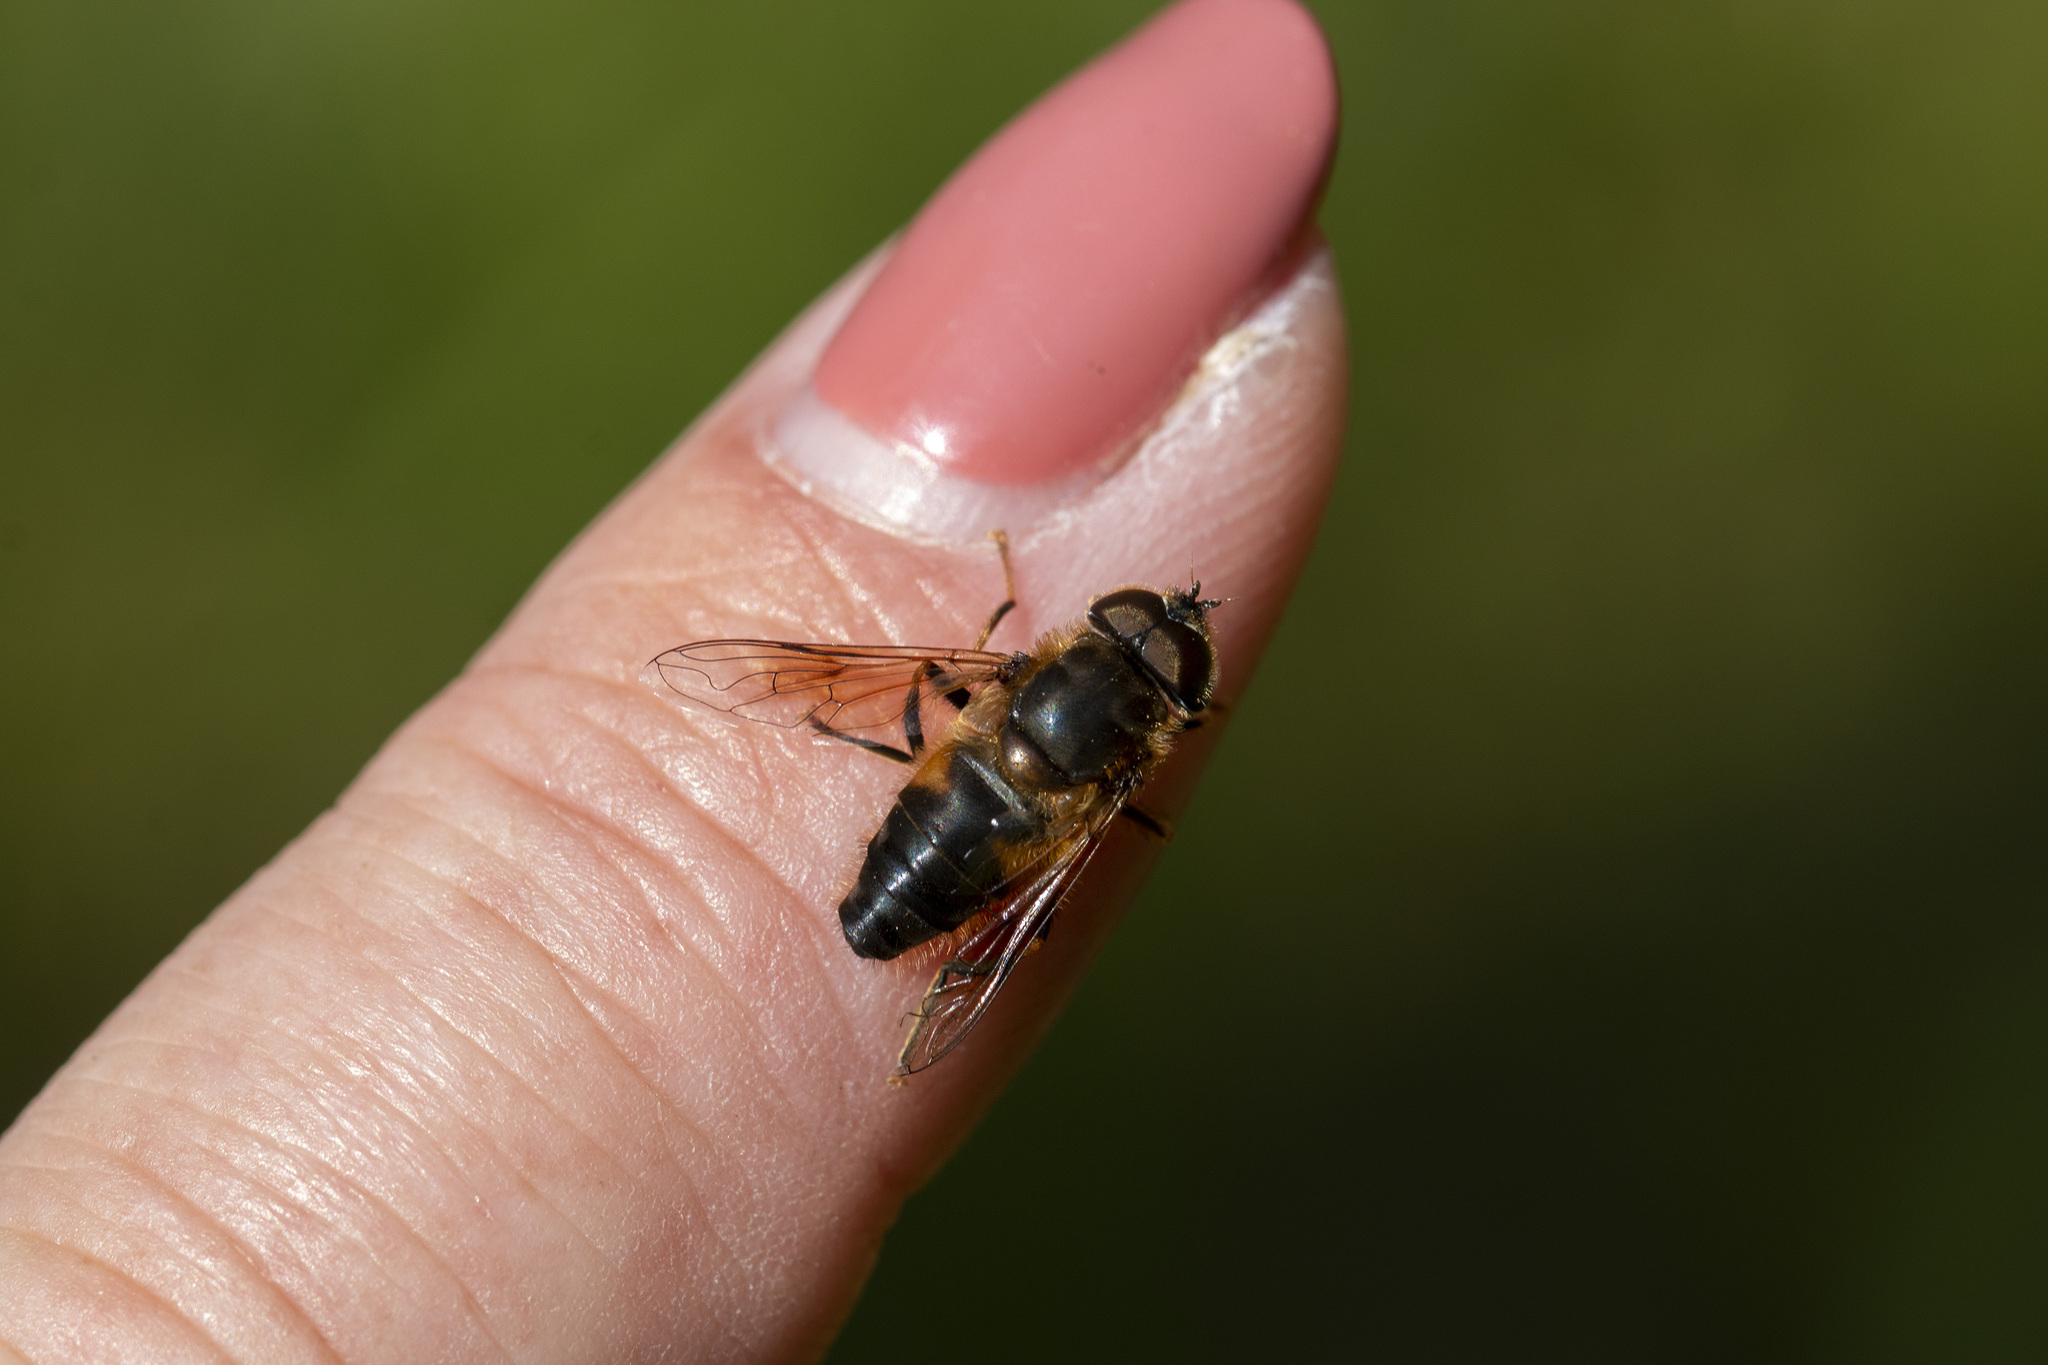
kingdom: Animalia
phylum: Arthropoda
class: Insecta
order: Diptera
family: Syrphidae
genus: Eristalis
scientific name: Eristalis pertinax
